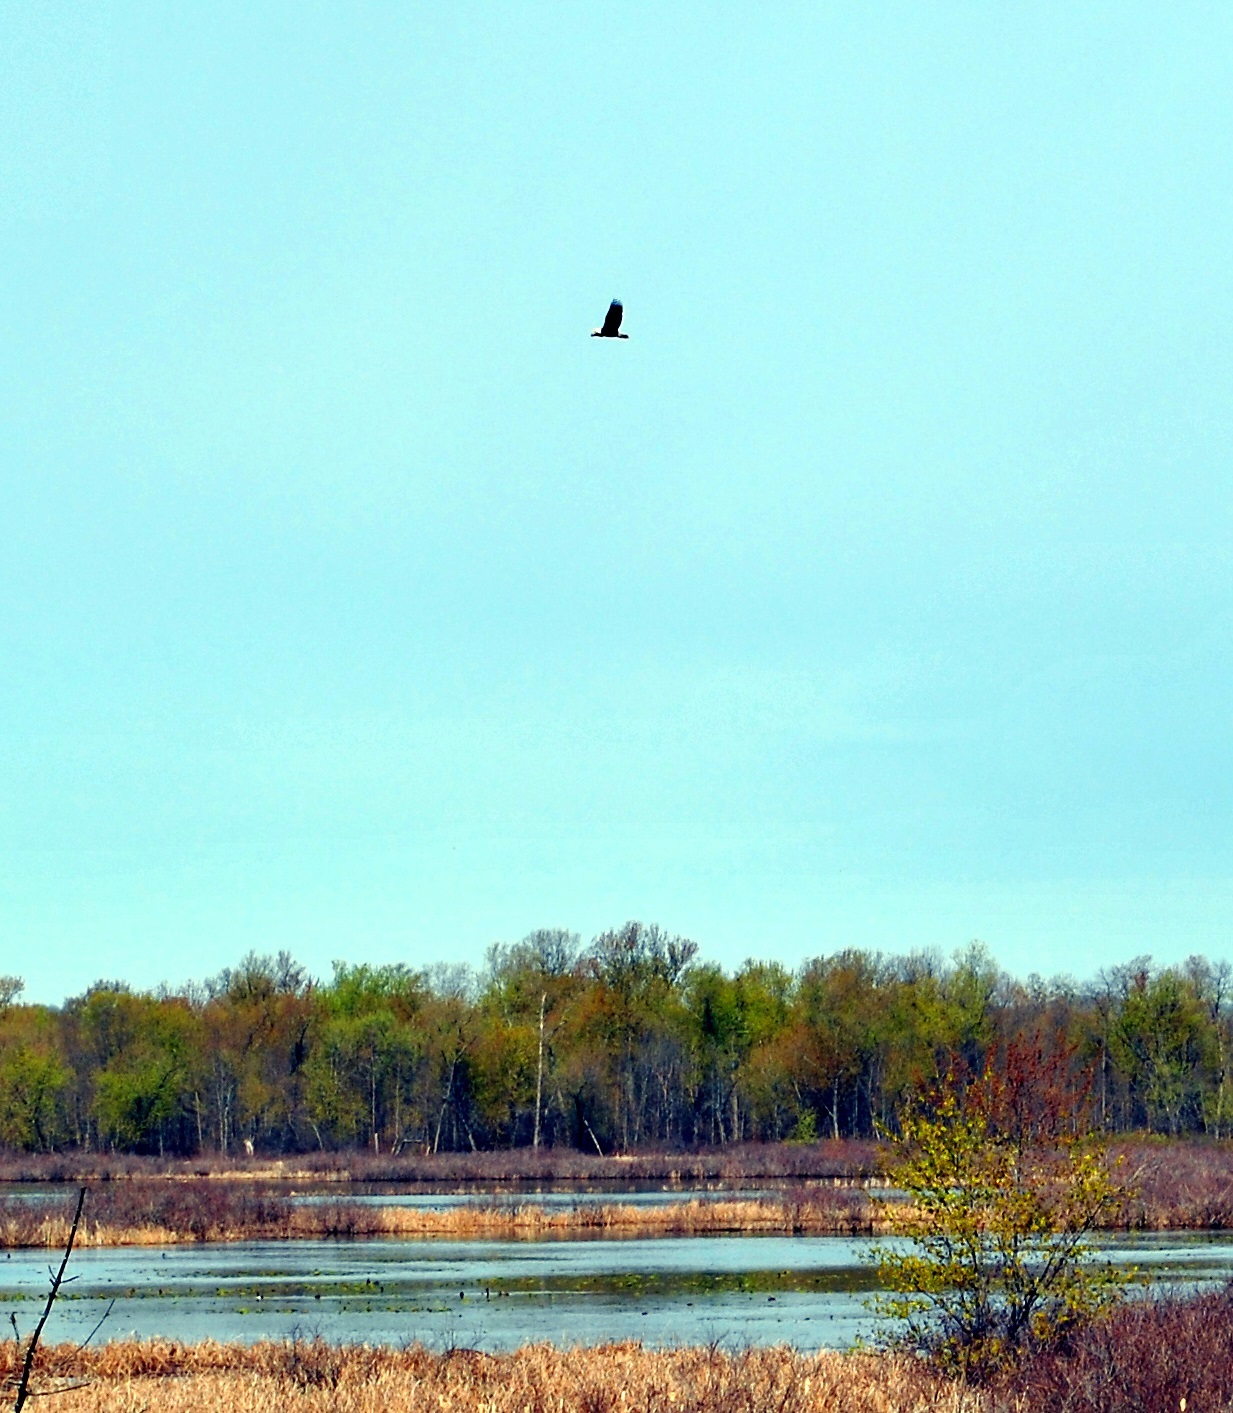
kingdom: Animalia
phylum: Chordata
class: Aves
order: Accipitriformes
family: Accipitridae
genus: Haliaeetus
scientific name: Haliaeetus leucocephalus
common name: Bald eagle
